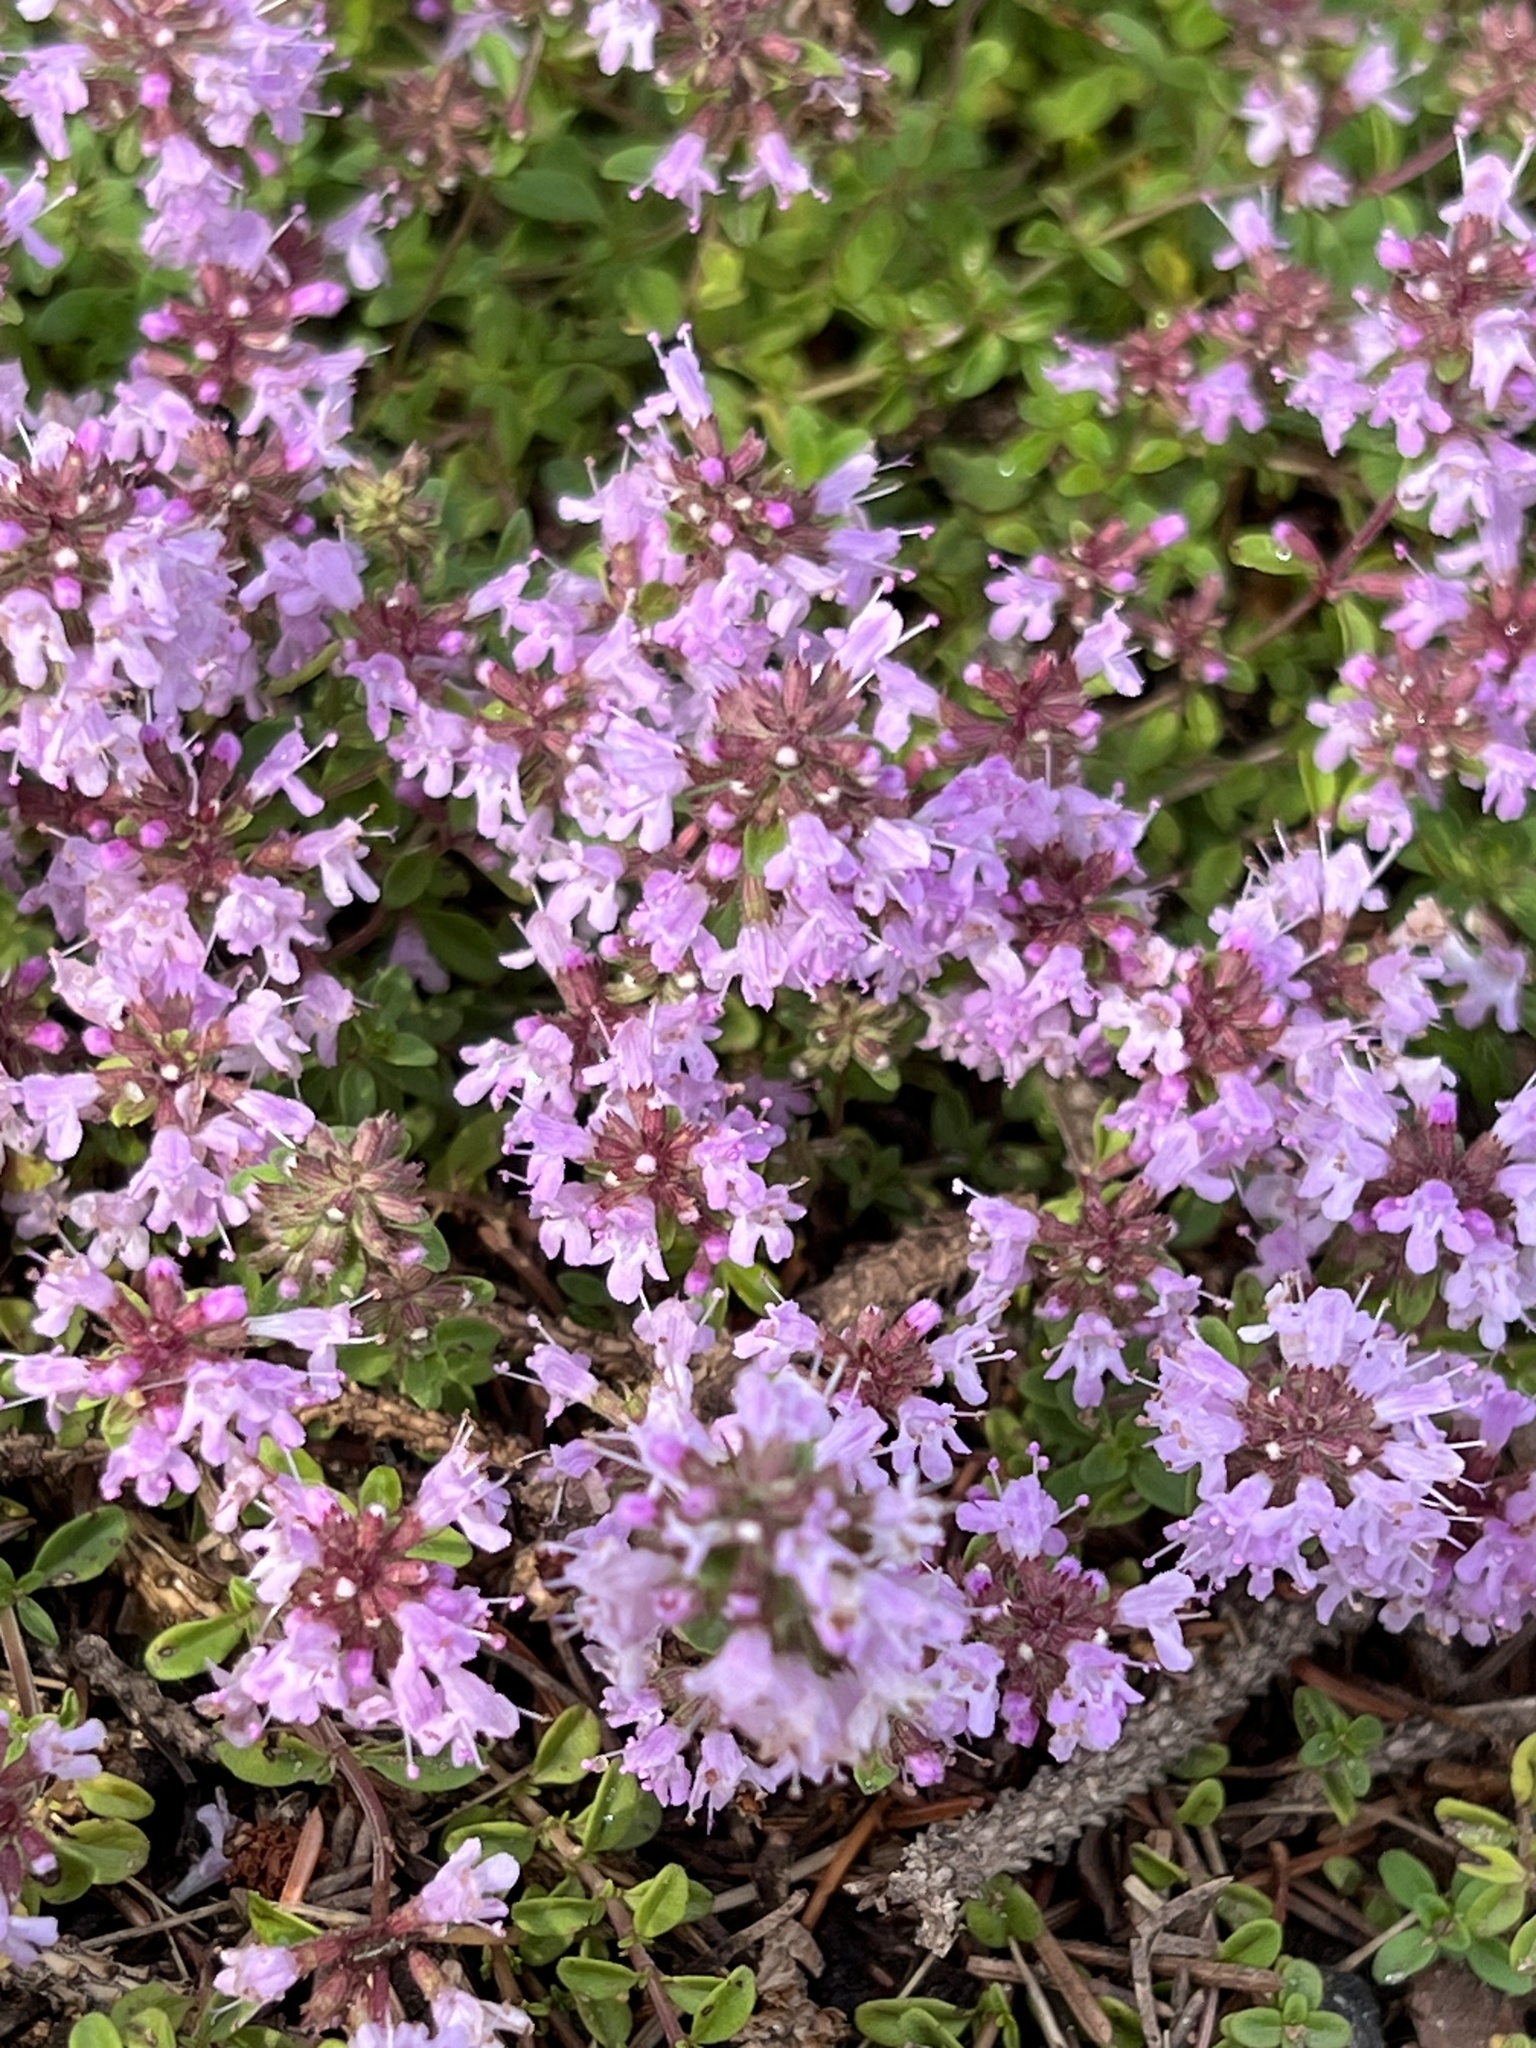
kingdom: Plantae
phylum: Tracheophyta
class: Magnoliopsida
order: Lamiales
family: Lamiaceae
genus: Thymus
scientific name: Thymus pulegioides
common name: Large thyme
